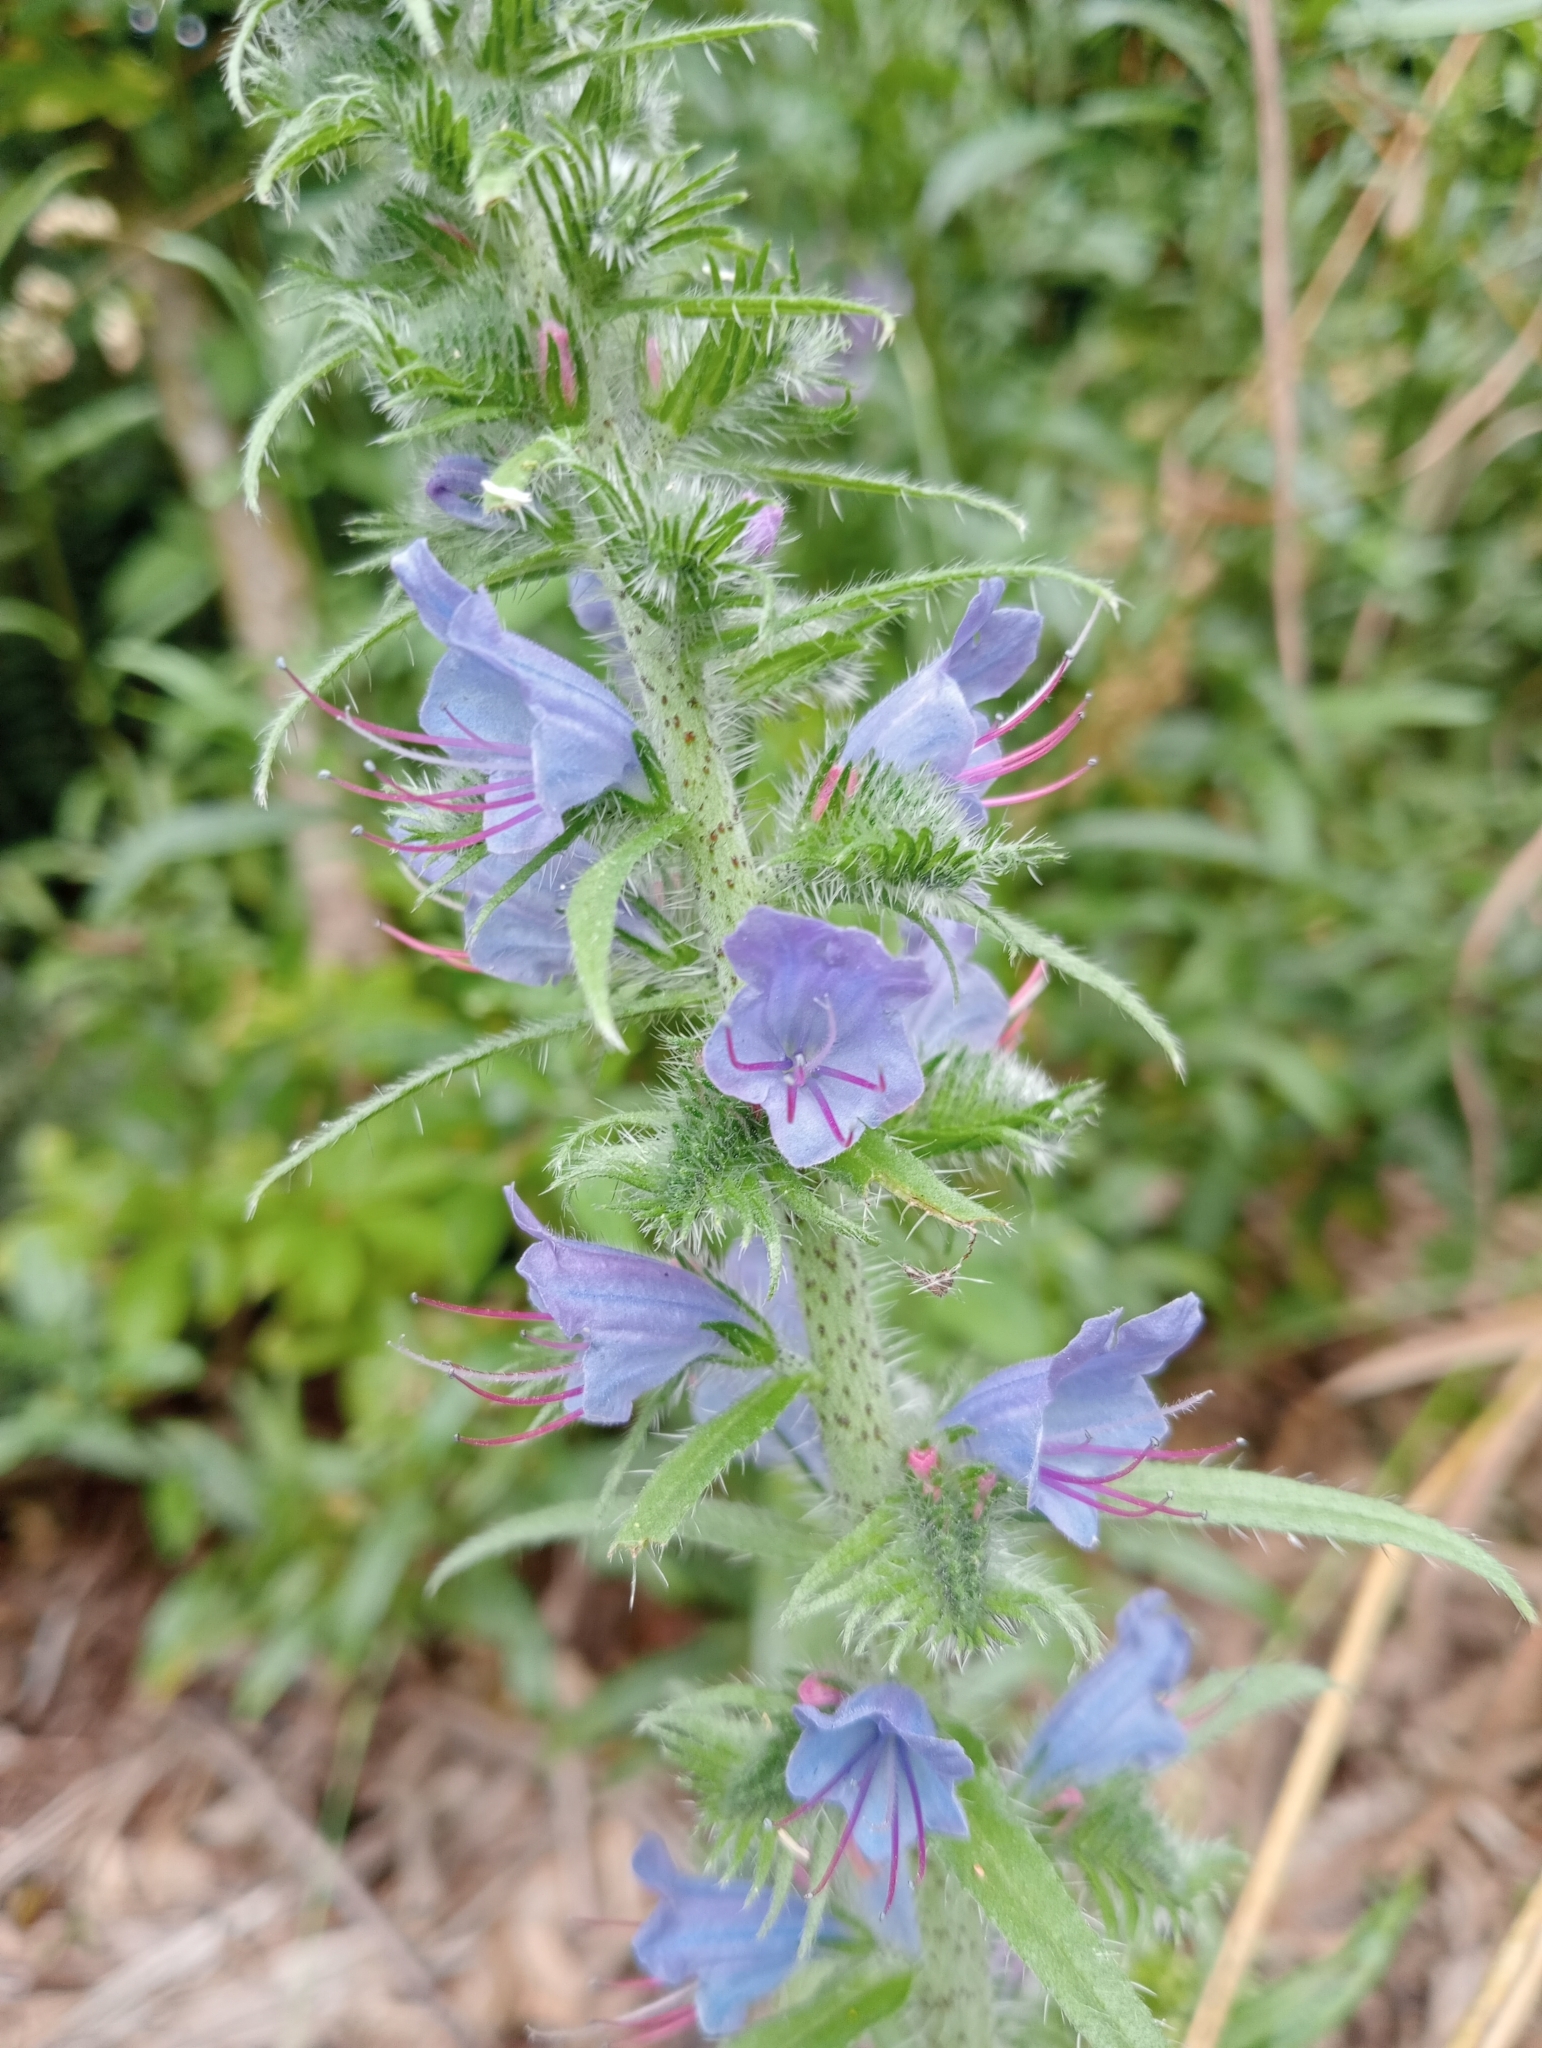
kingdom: Plantae
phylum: Tracheophyta
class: Magnoliopsida
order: Boraginales
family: Boraginaceae
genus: Echium
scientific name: Echium vulgare
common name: Common viper's bugloss
